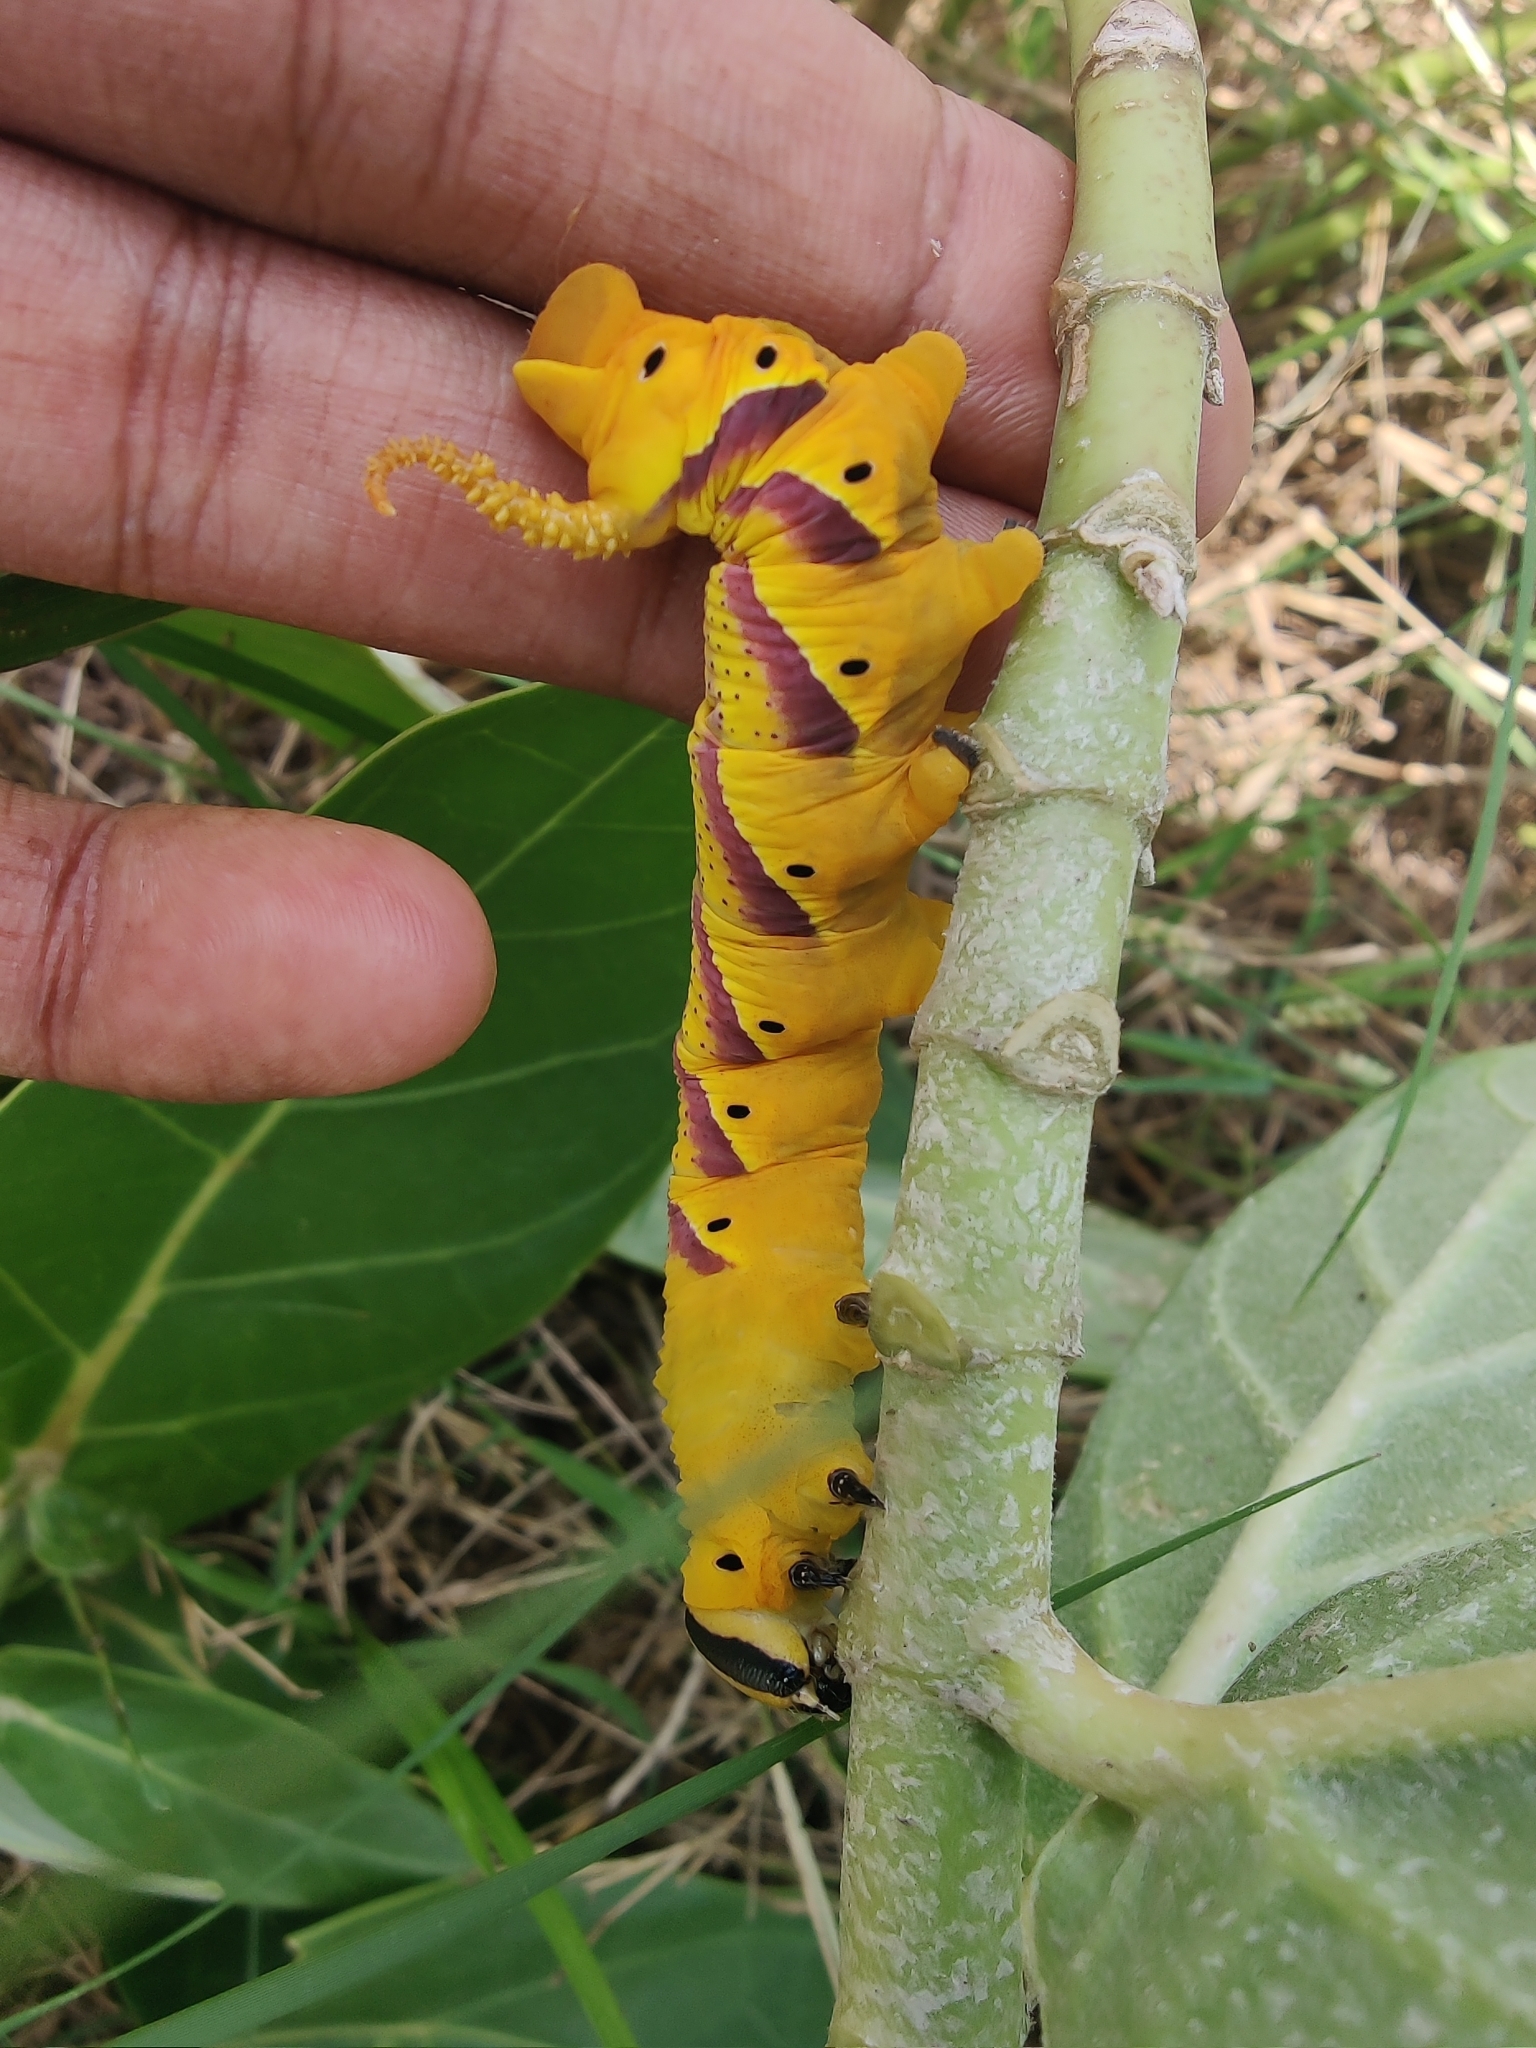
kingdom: Animalia
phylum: Arthropoda
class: Insecta
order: Lepidoptera
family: Sphingidae
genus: Acherontia
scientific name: Acherontia lachesis
